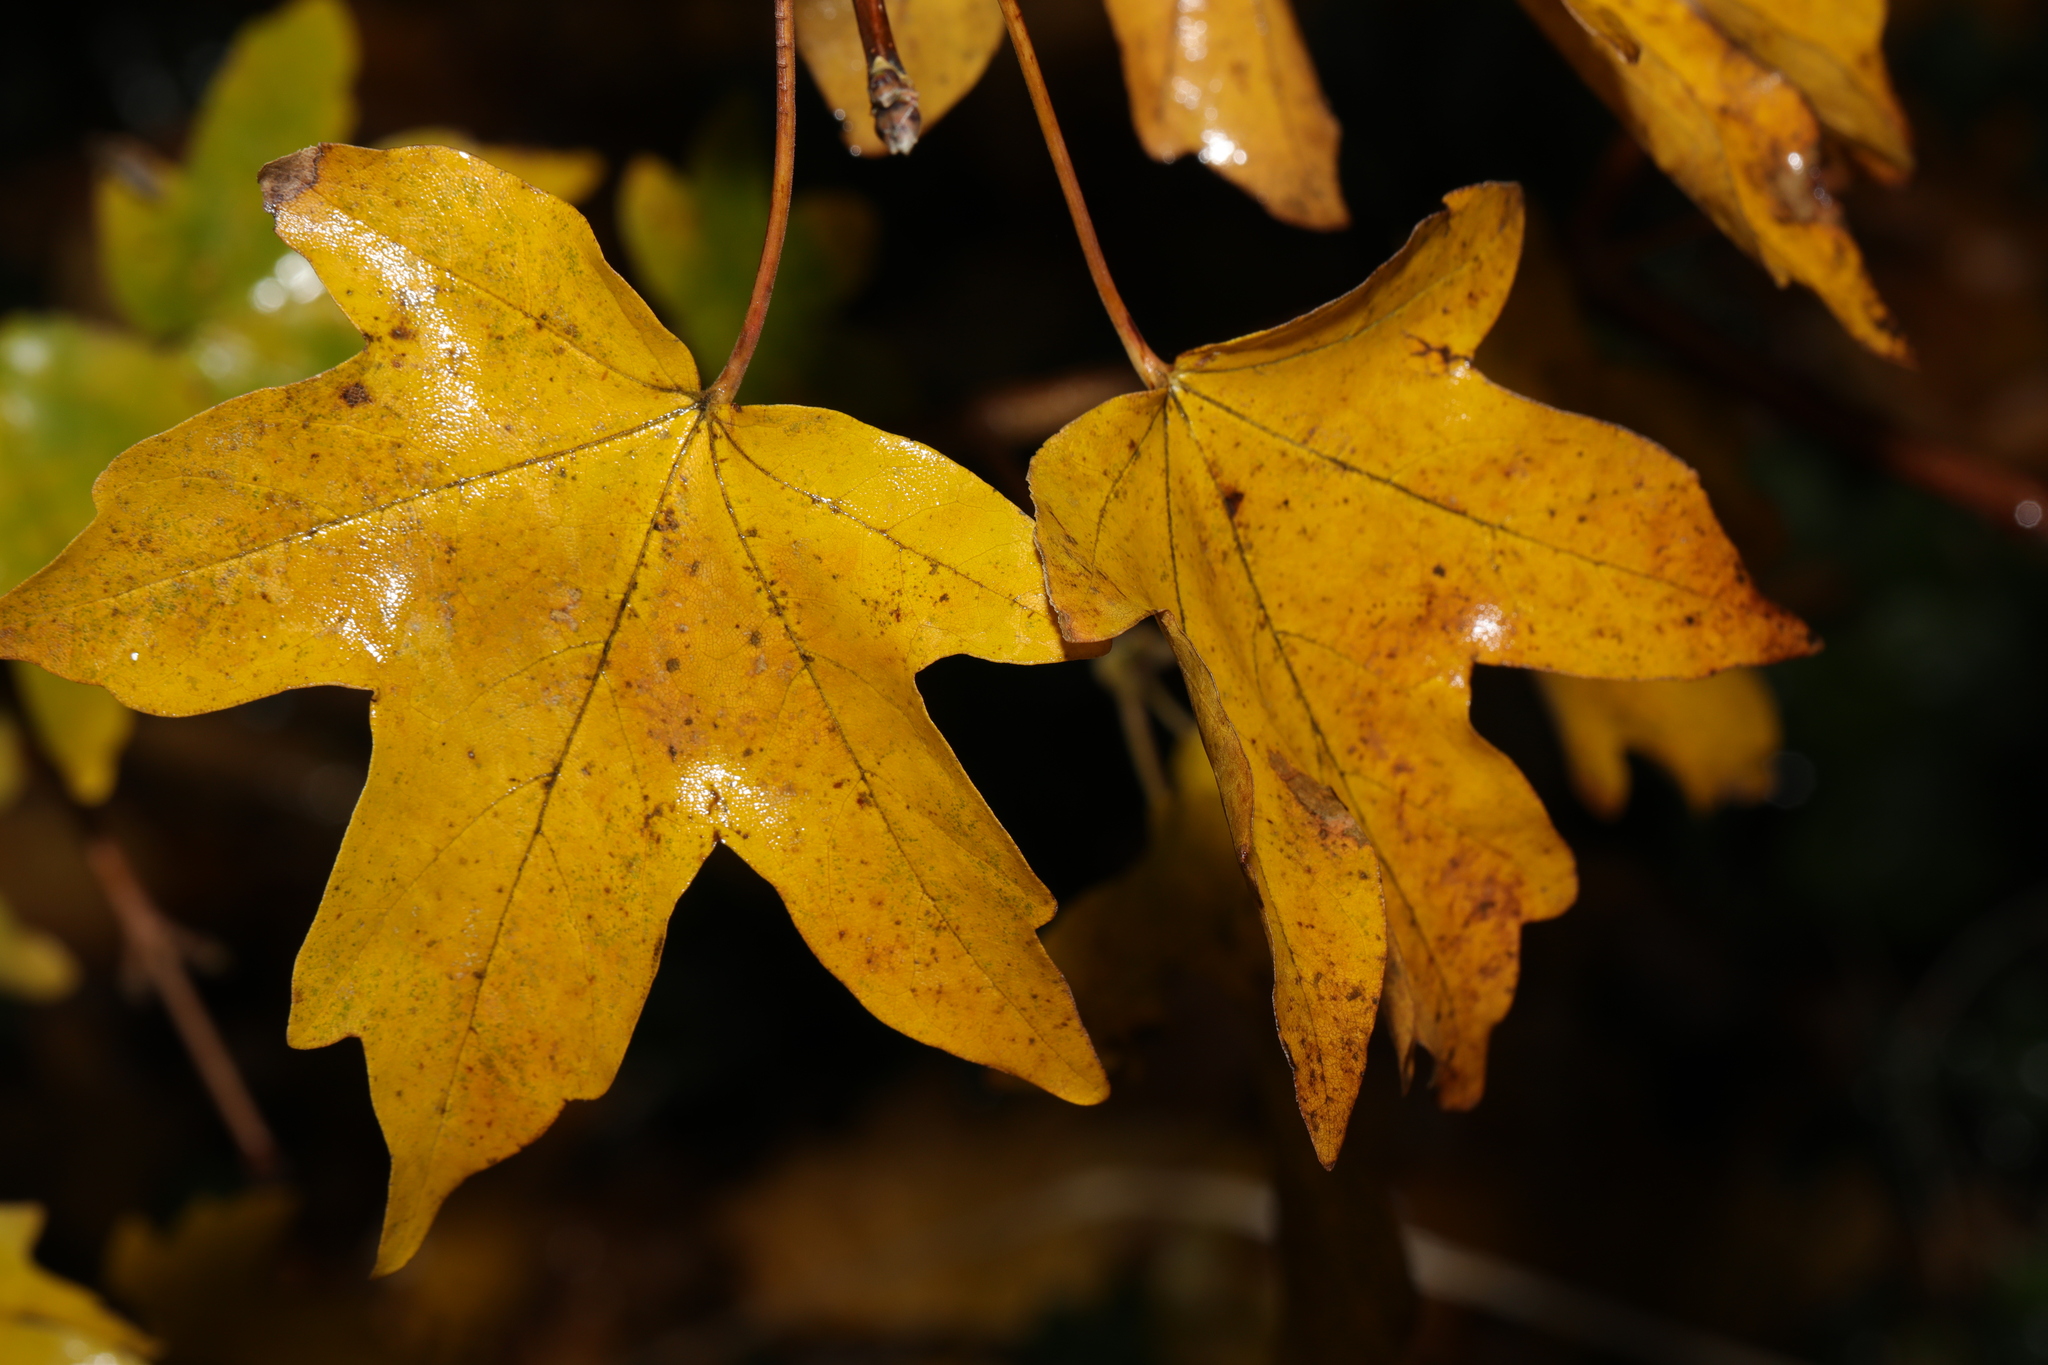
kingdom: Plantae
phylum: Tracheophyta
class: Magnoliopsida
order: Sapindales
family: Sapindaceae
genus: Acer
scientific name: Acer campestre
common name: Field maple
